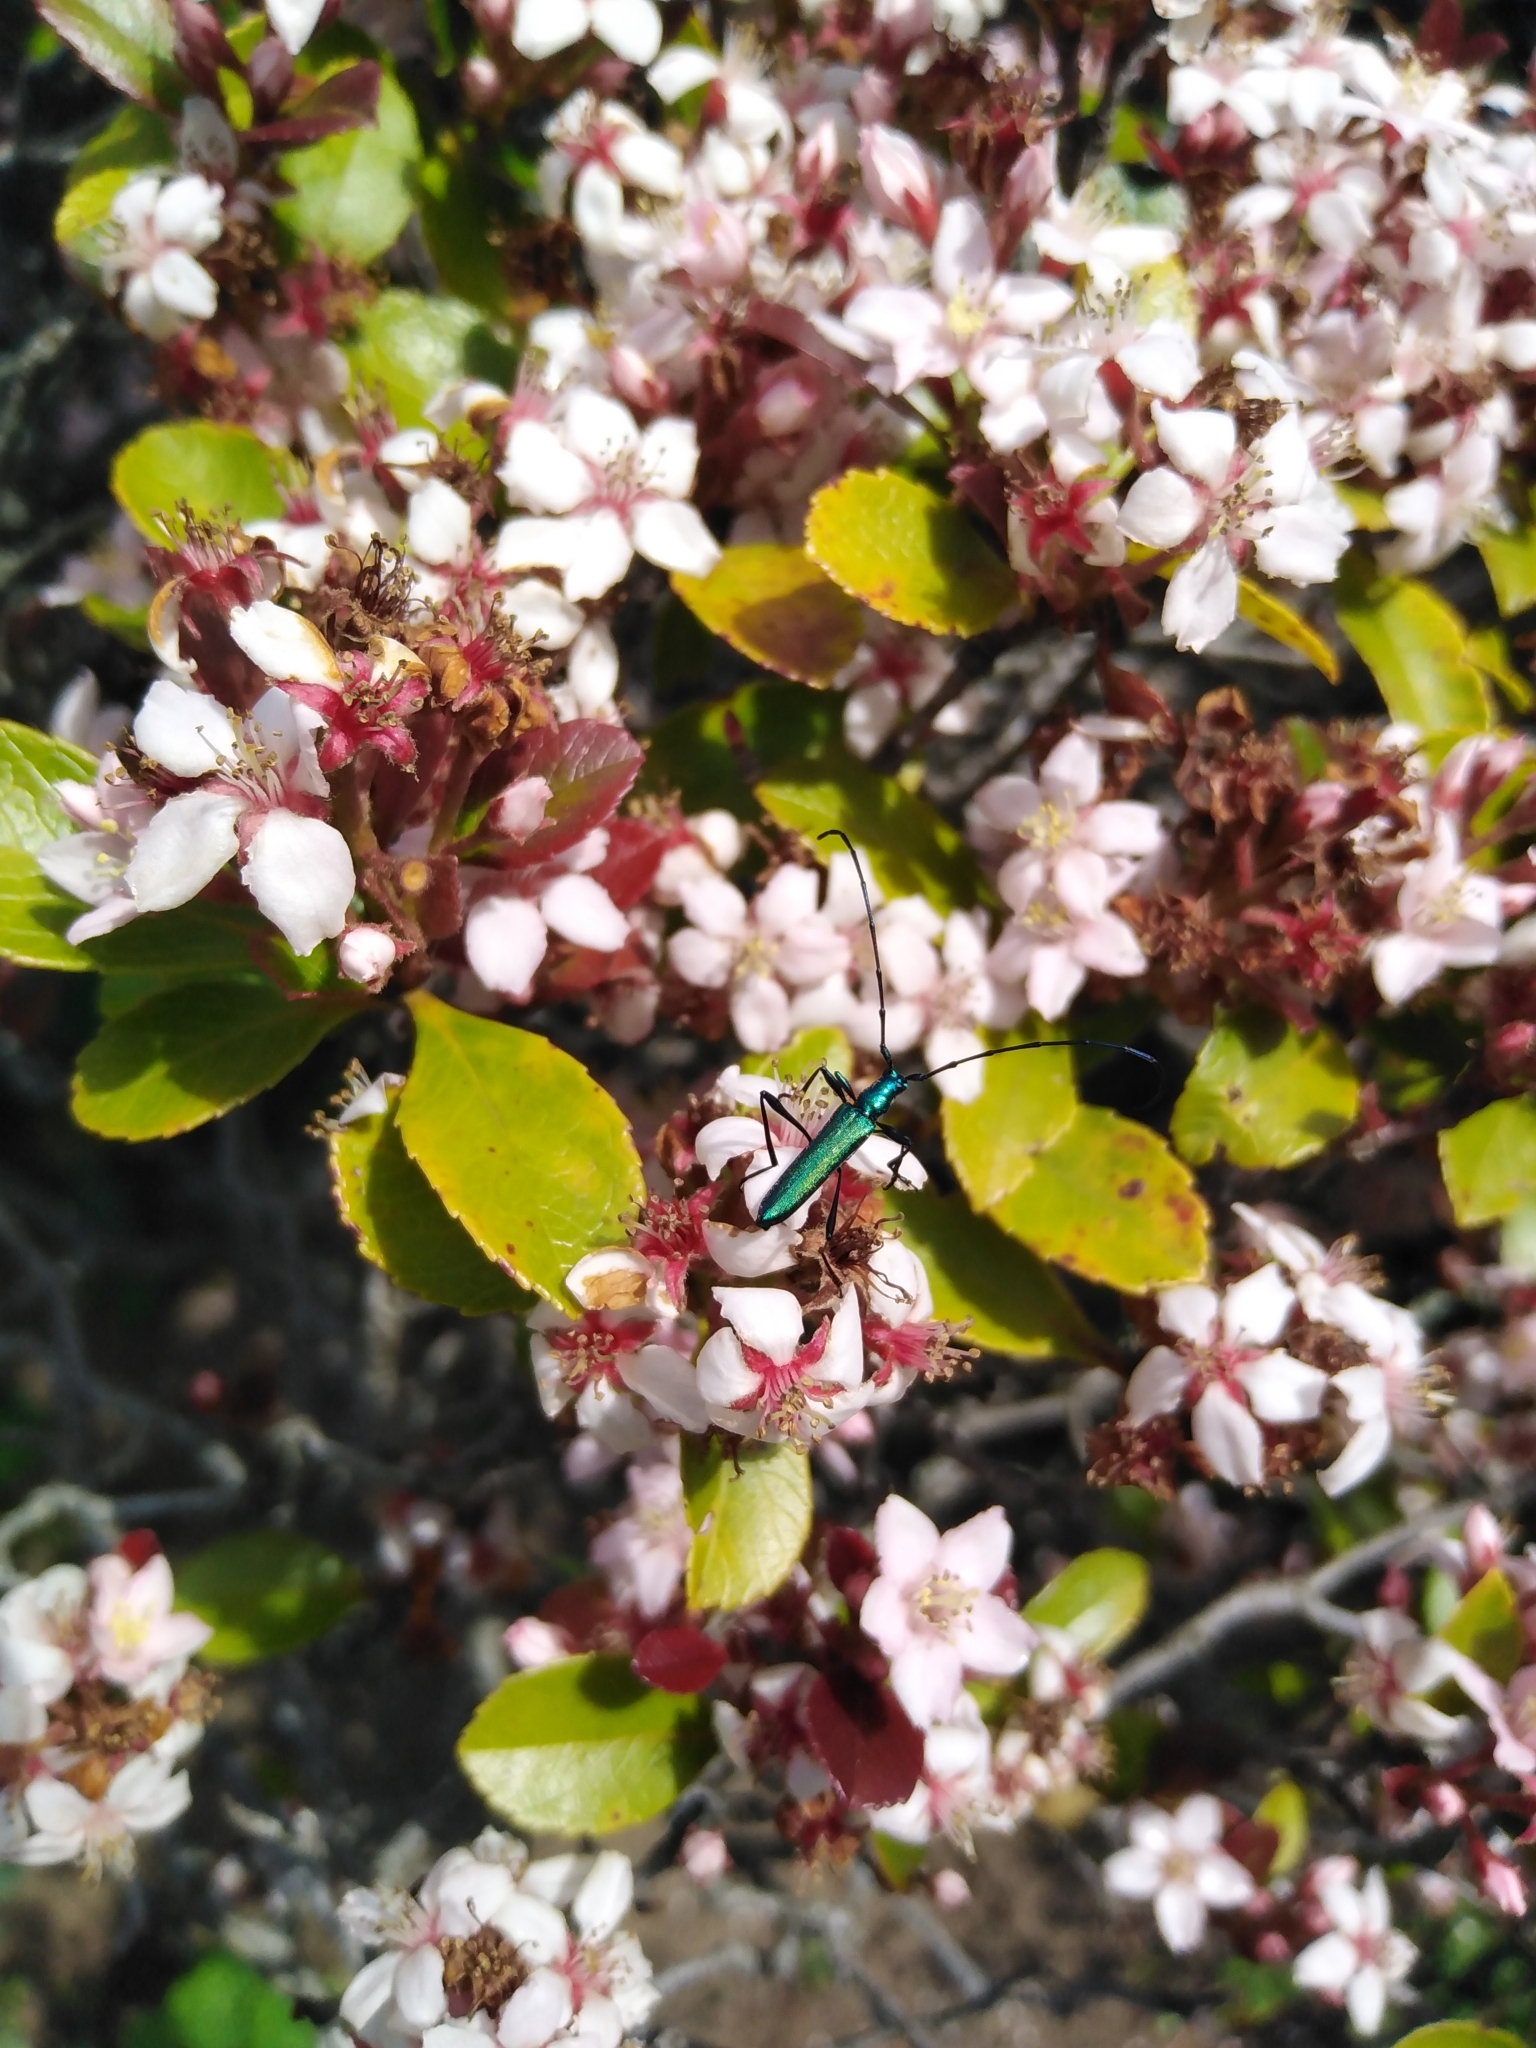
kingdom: Animalia
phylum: Arthropoda
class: Insecta
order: Coleoptera
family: Cerambycidae
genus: Promeces
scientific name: Promeces longipes
